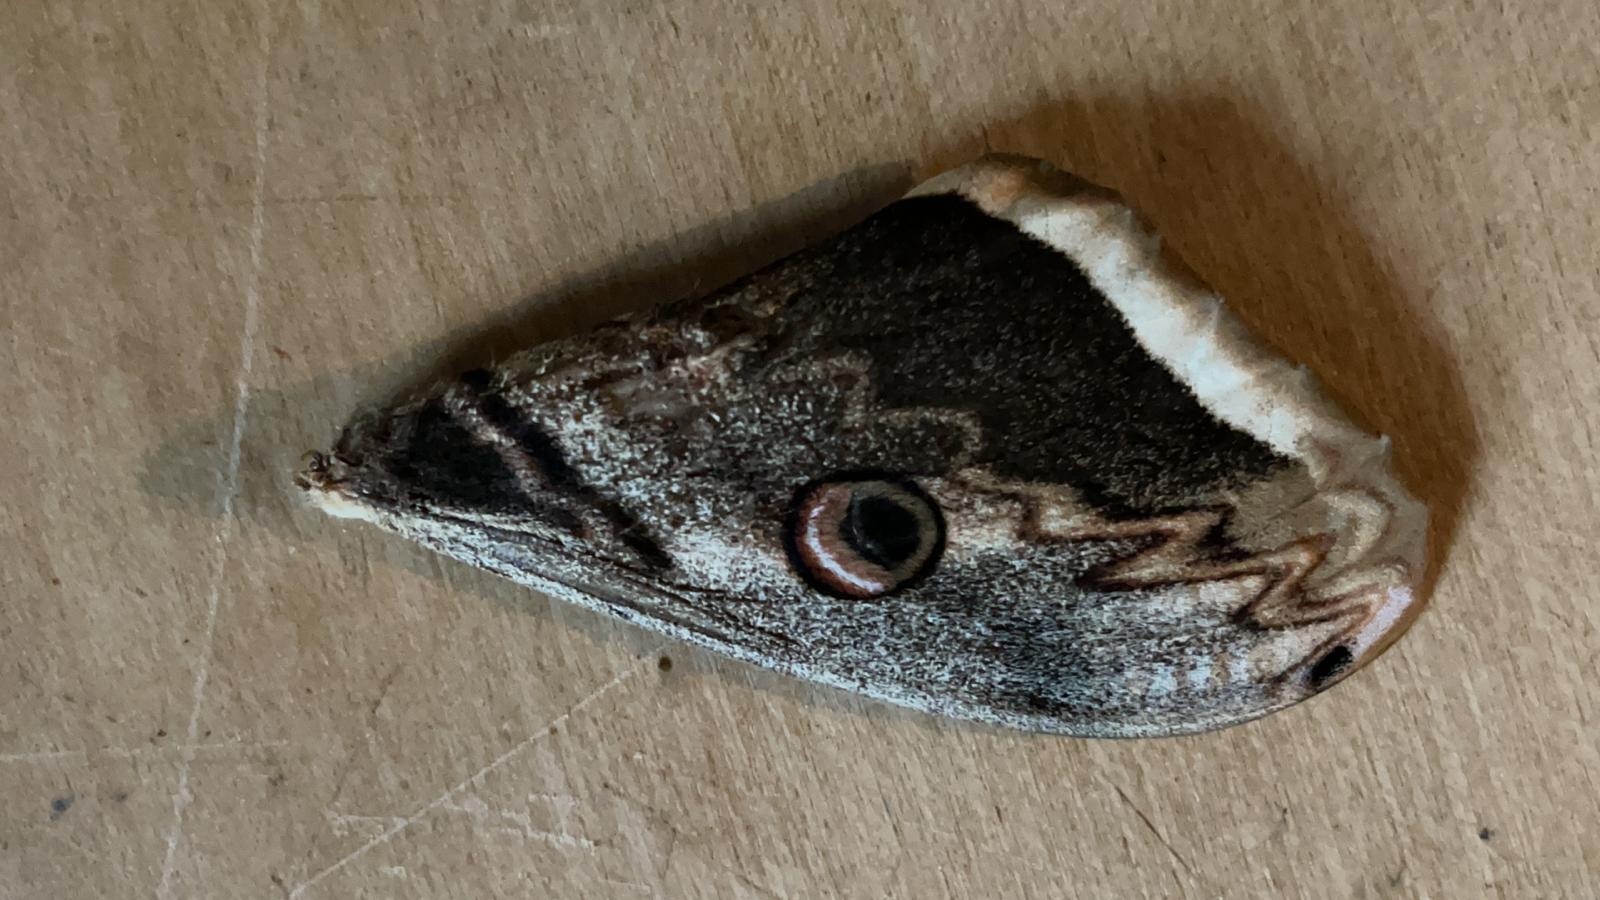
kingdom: Animalia
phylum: Arthropoda
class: Insecta
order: Lepidoptera
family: Saturniidae
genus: Saturnia
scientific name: Saturnia pyri
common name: Great peacock moth
